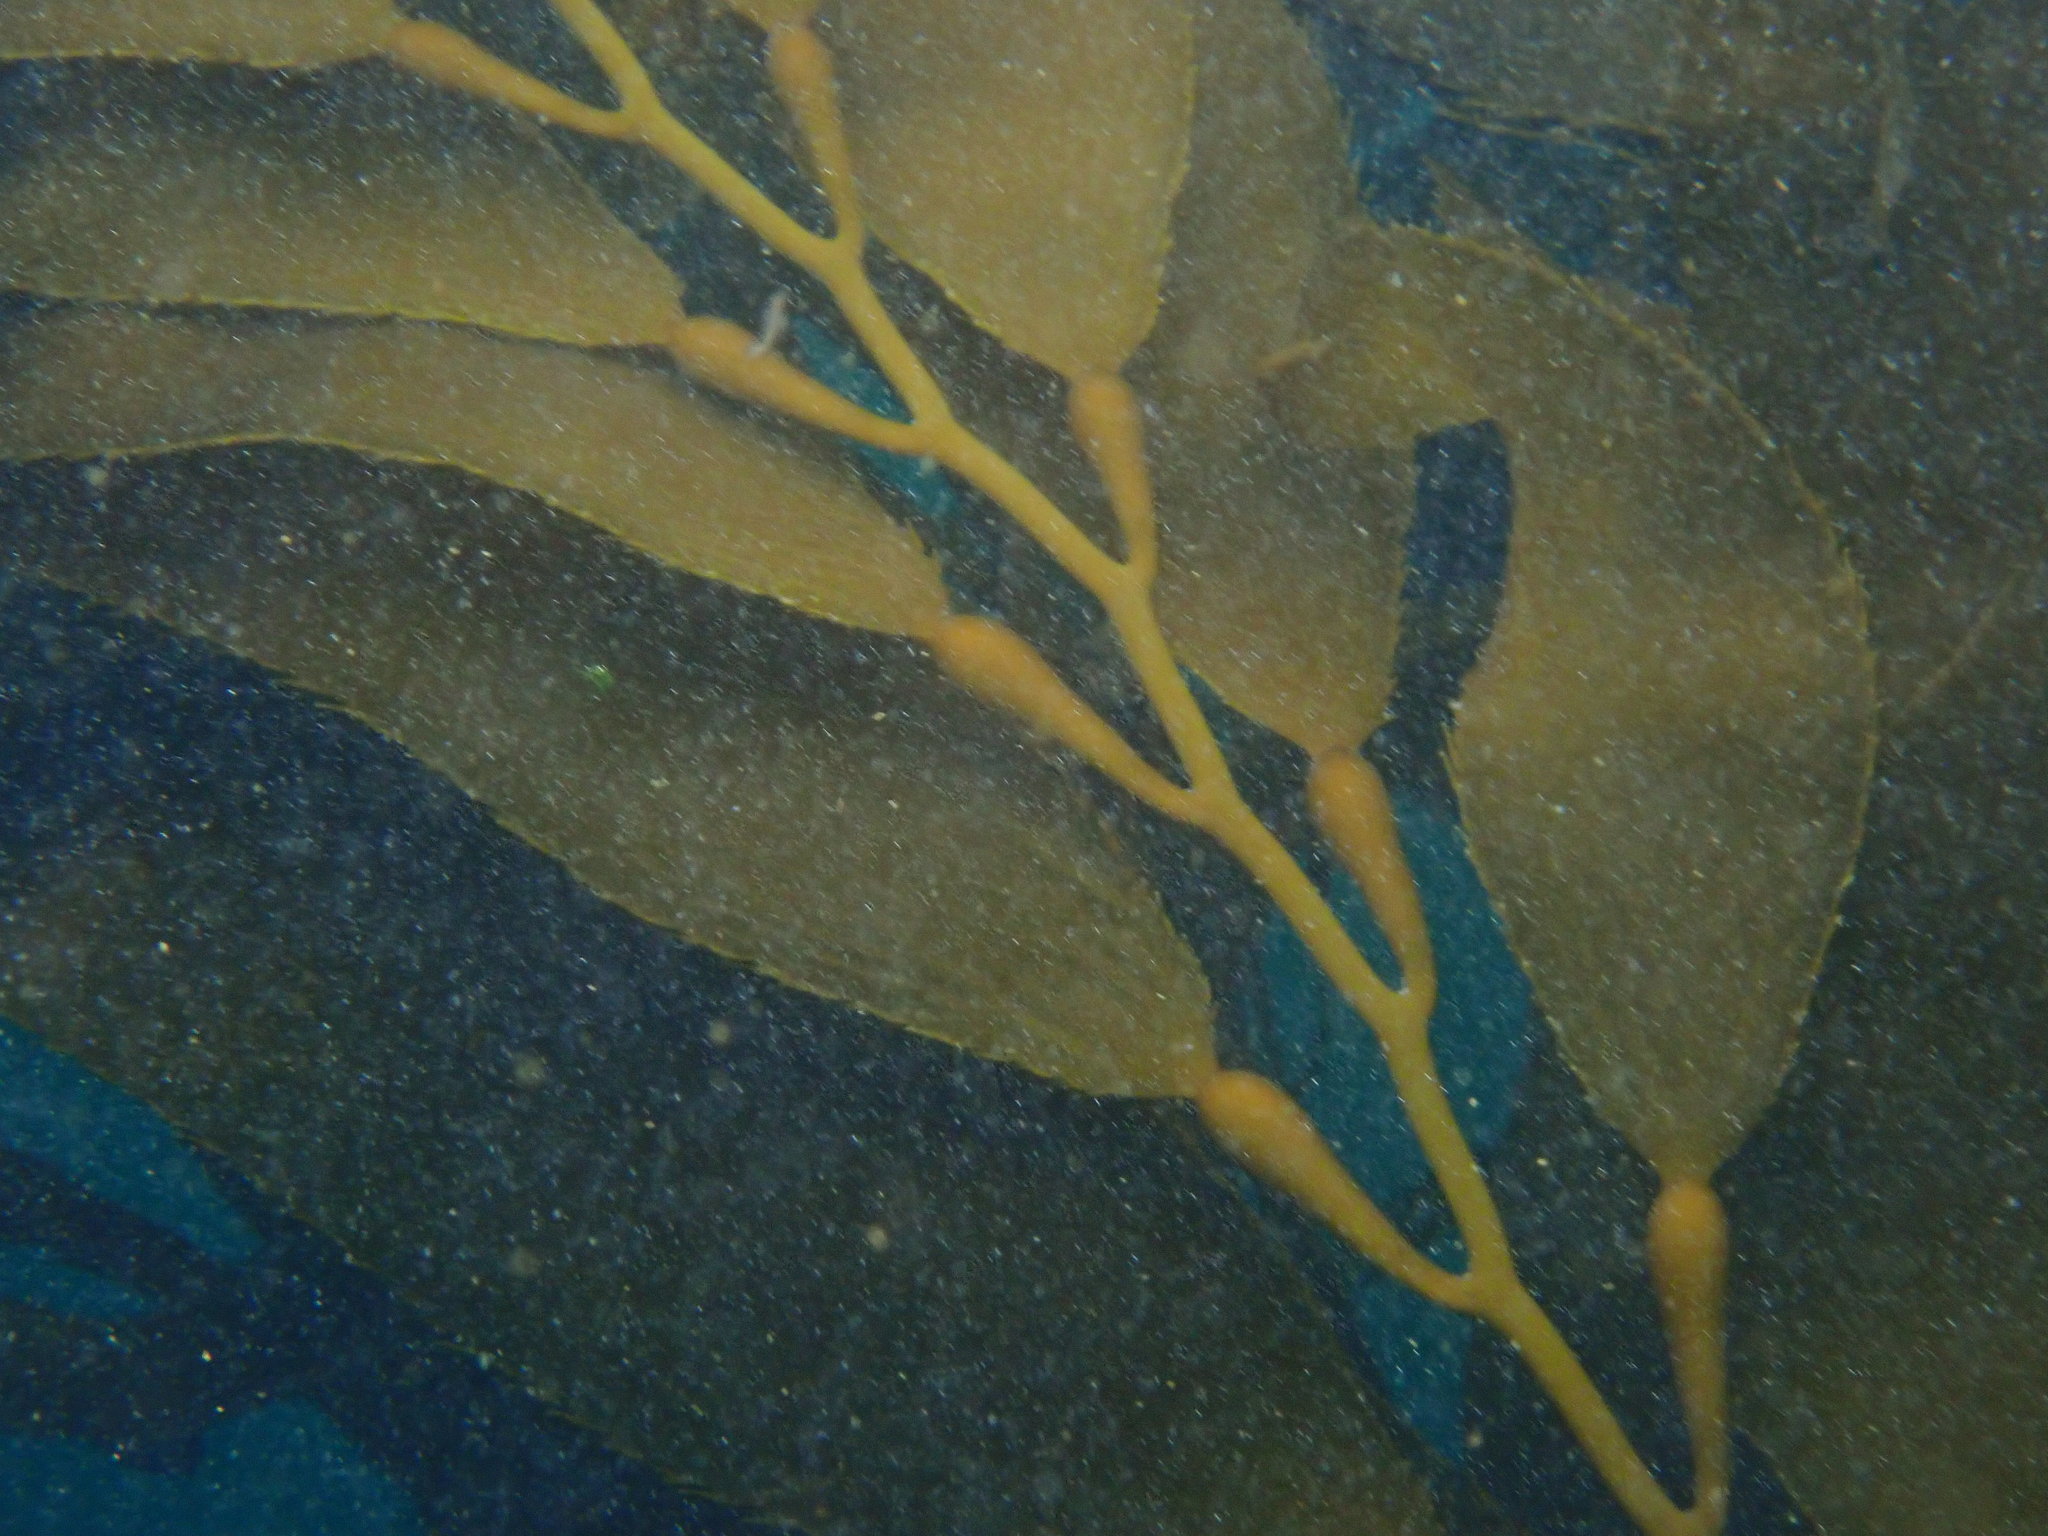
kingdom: Chromista
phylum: Ochrophyta
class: Phaeophyceae
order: Laminariales
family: Laminariaceae
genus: Macrocystis
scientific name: Macrocystis pyrifera
